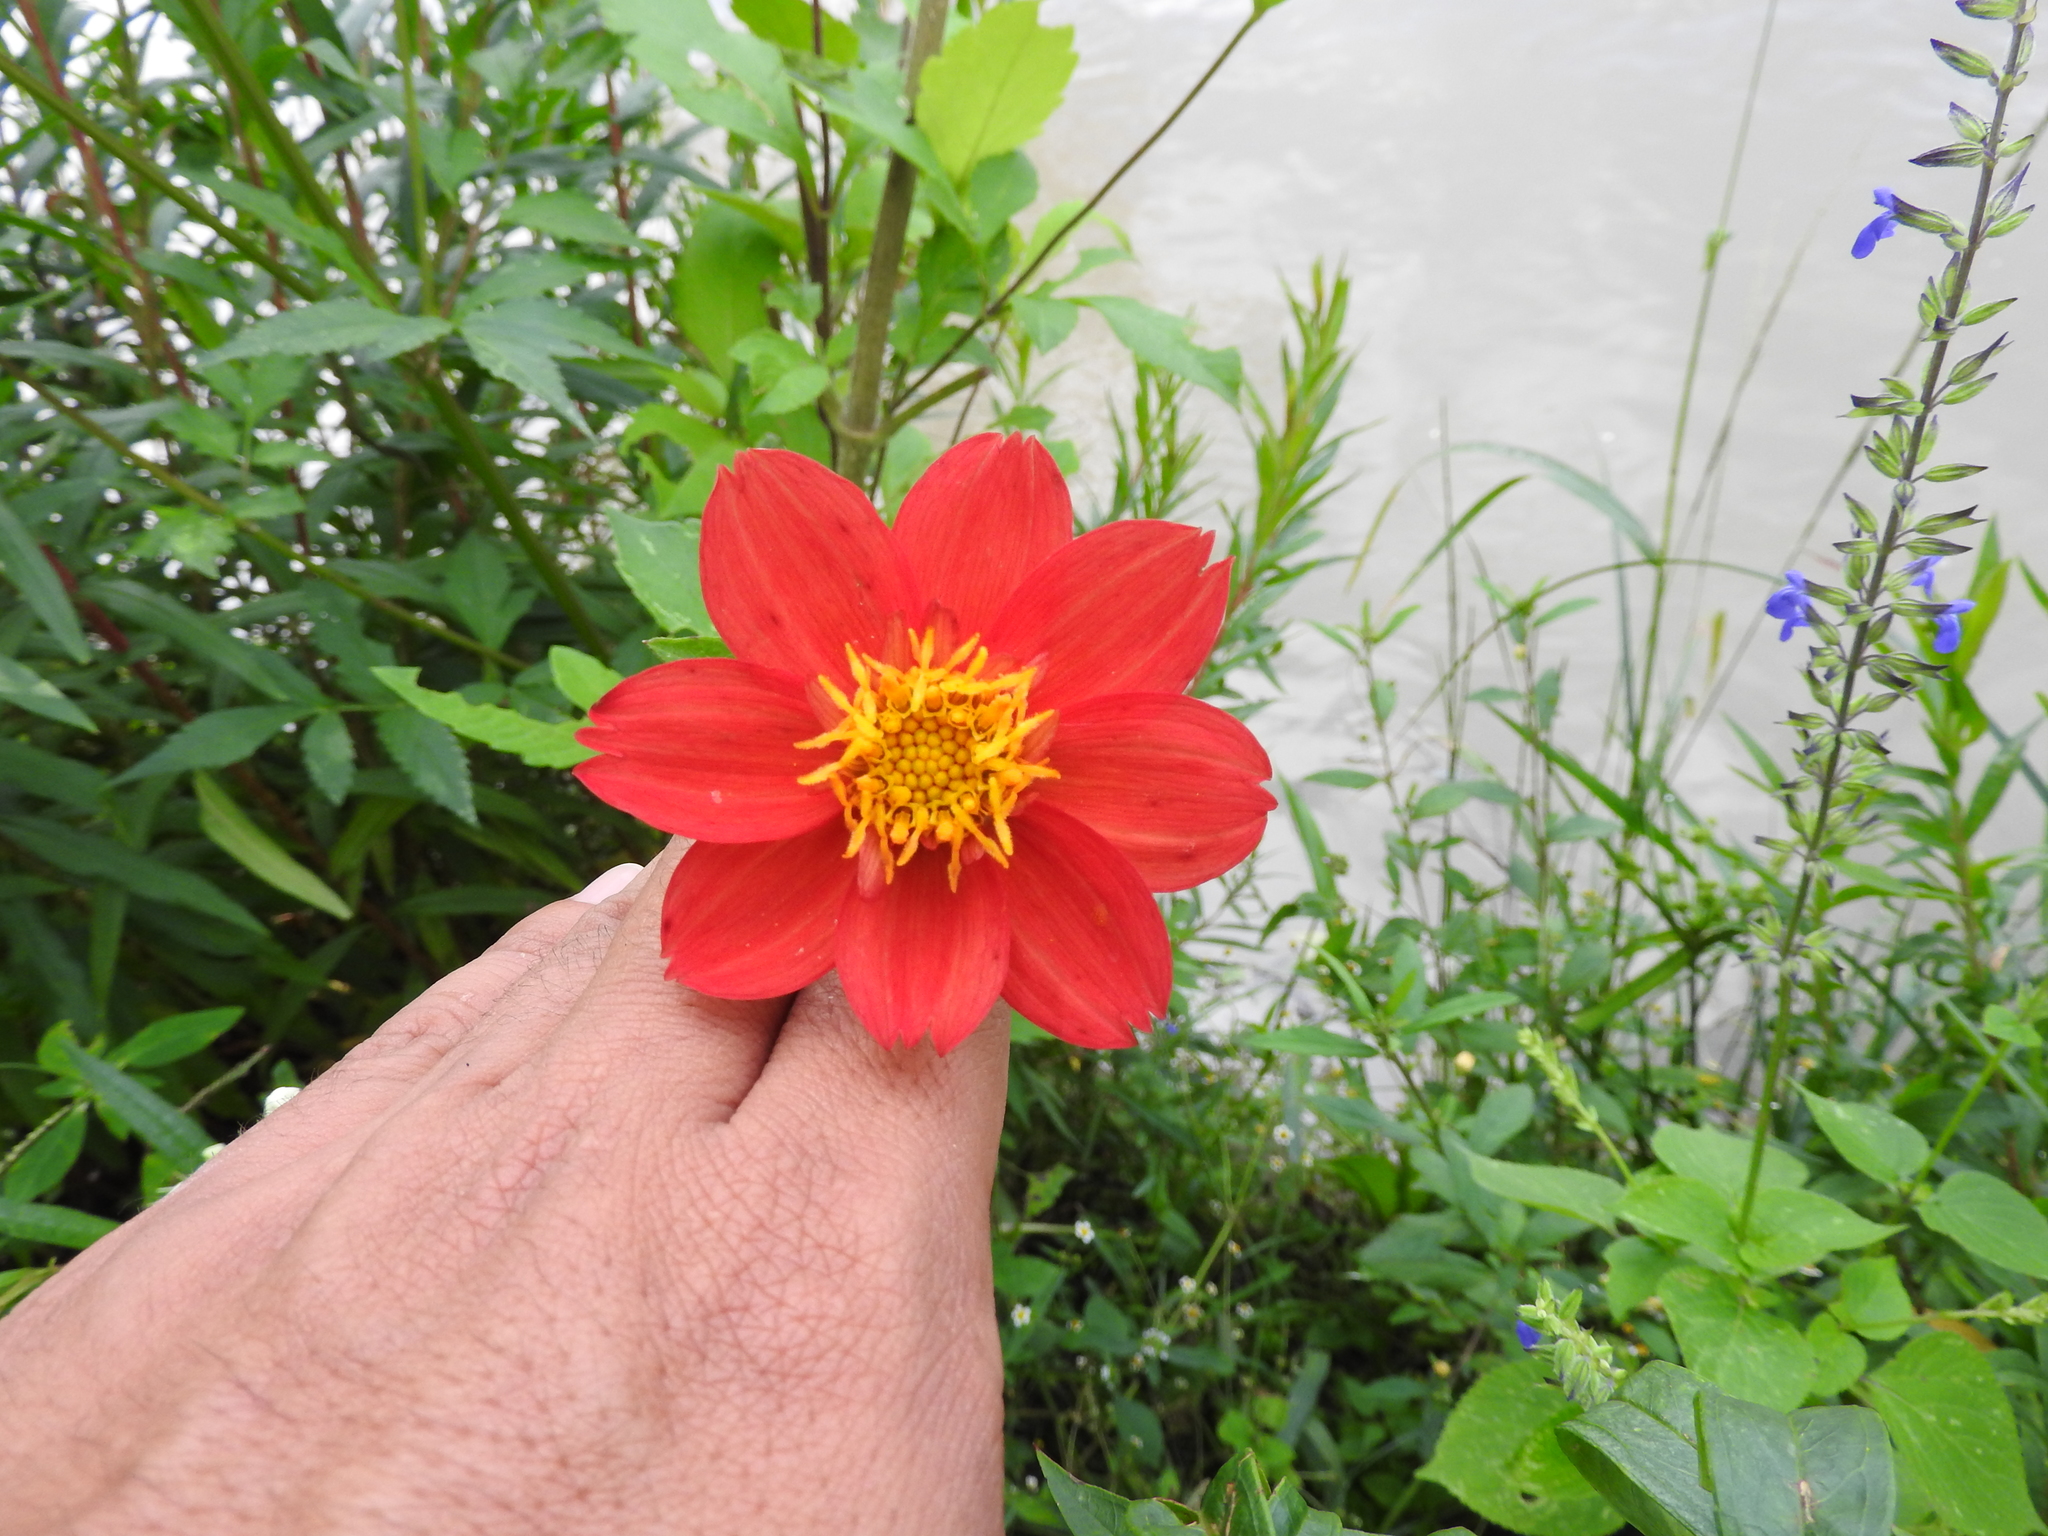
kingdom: Plantae
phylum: Tracheophyta
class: Magnoliopsida
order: Asterales
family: Asteraceae
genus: Dahlia
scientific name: Dahlia coccinea
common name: Red dahlia
